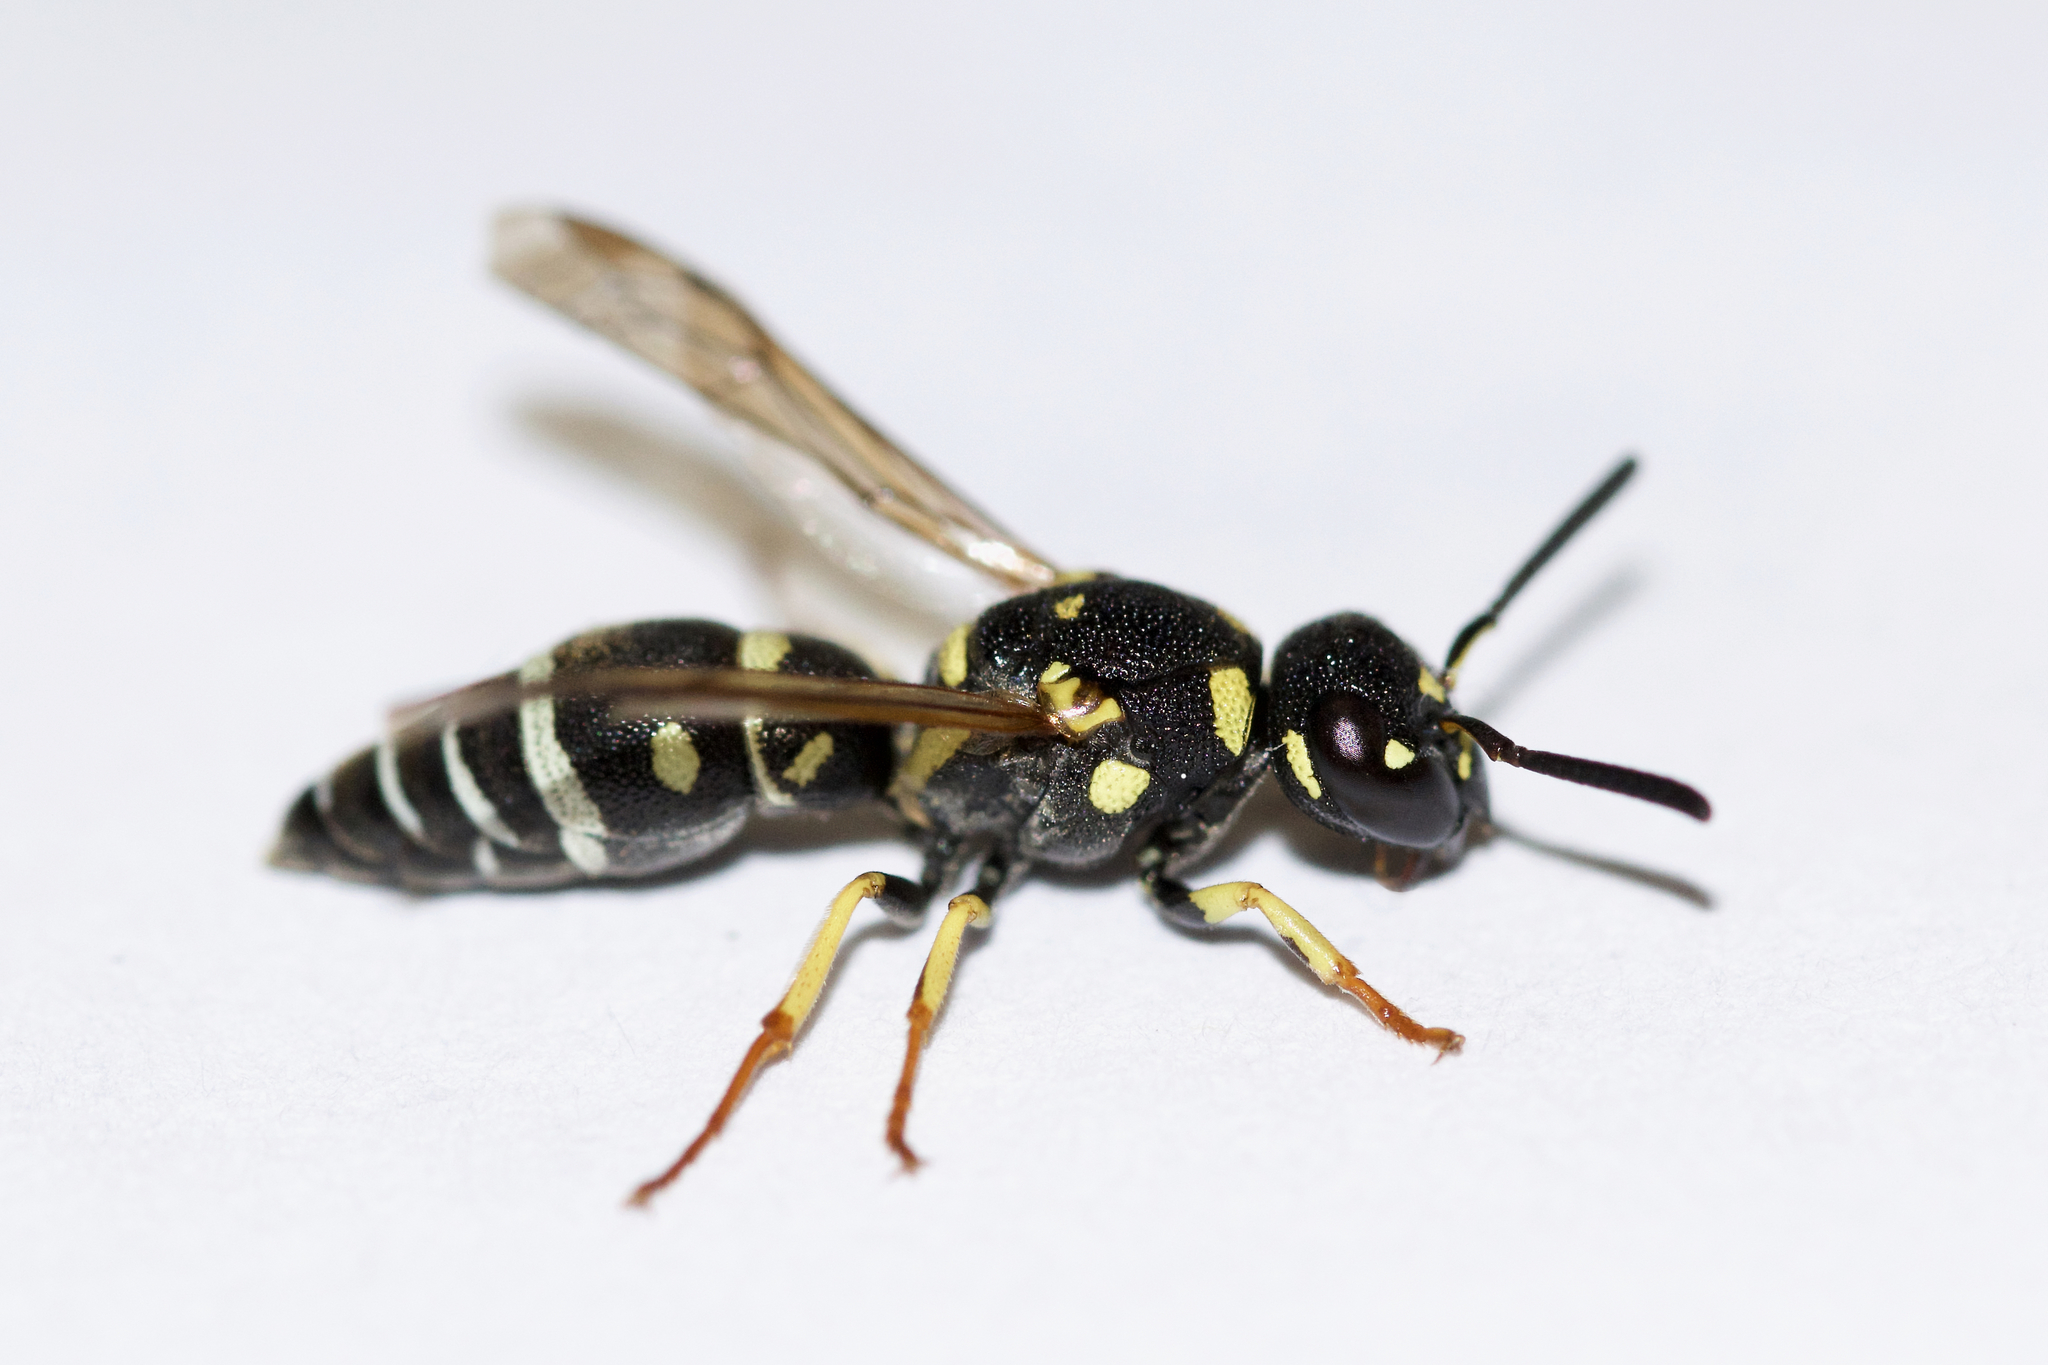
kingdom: Animalia
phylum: Arthropoda
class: Insecta
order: Hymenoptera
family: Eumenidae
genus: Rhynchalastor
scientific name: Rhynchalastor anormis
